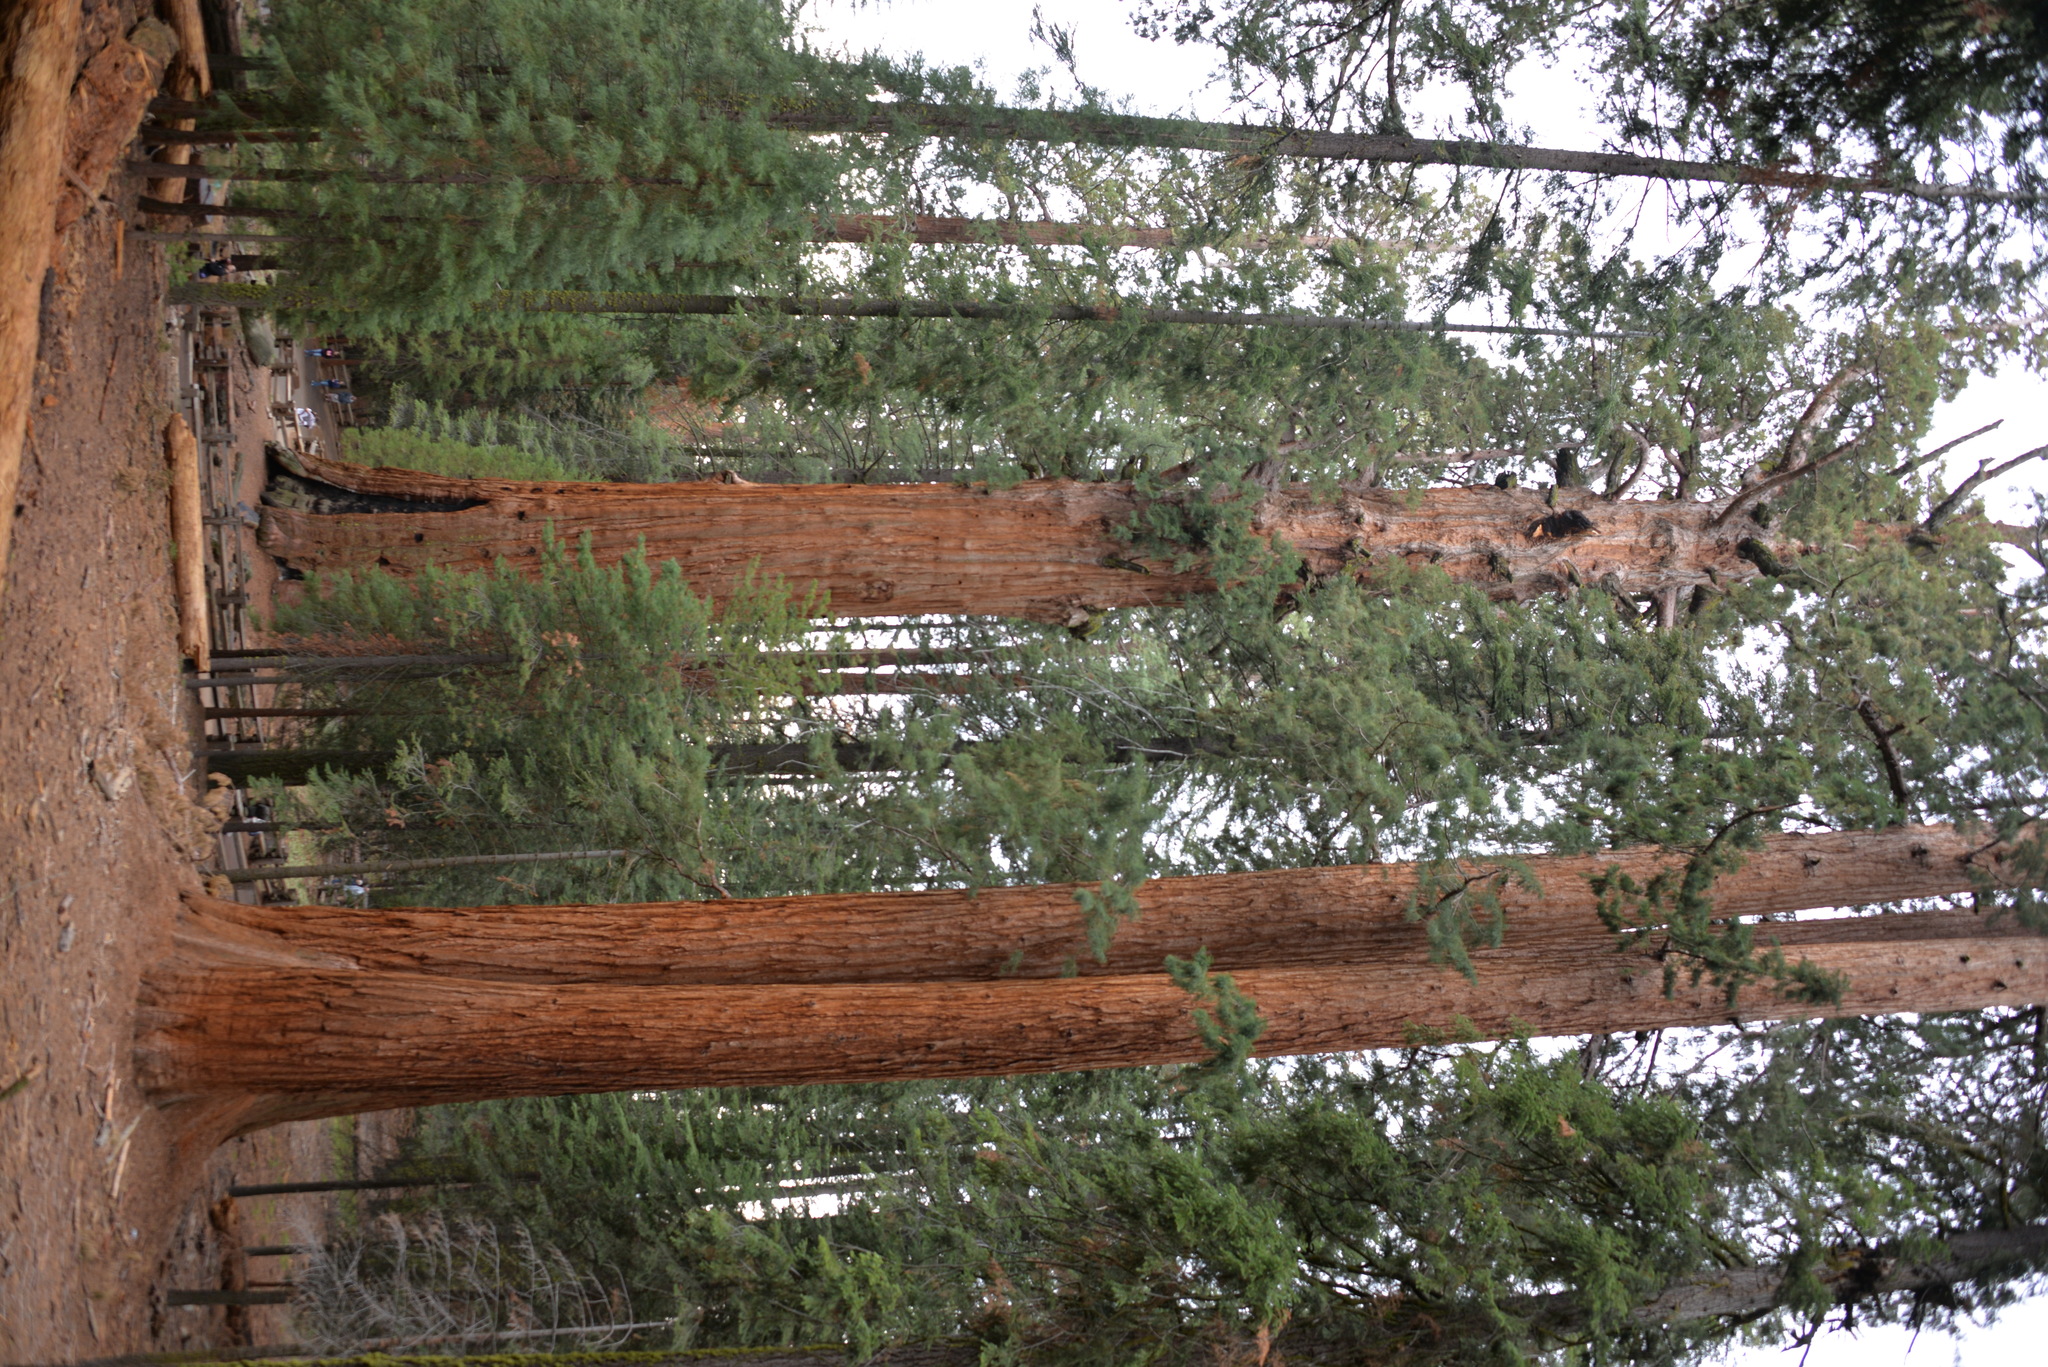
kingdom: Plantae
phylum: Tracheophyta
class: Pinopsida
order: Pinales
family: Cupressaceae
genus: Sequoiadendron
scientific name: Sequoiadendron giganteum
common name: Wellingtonia
